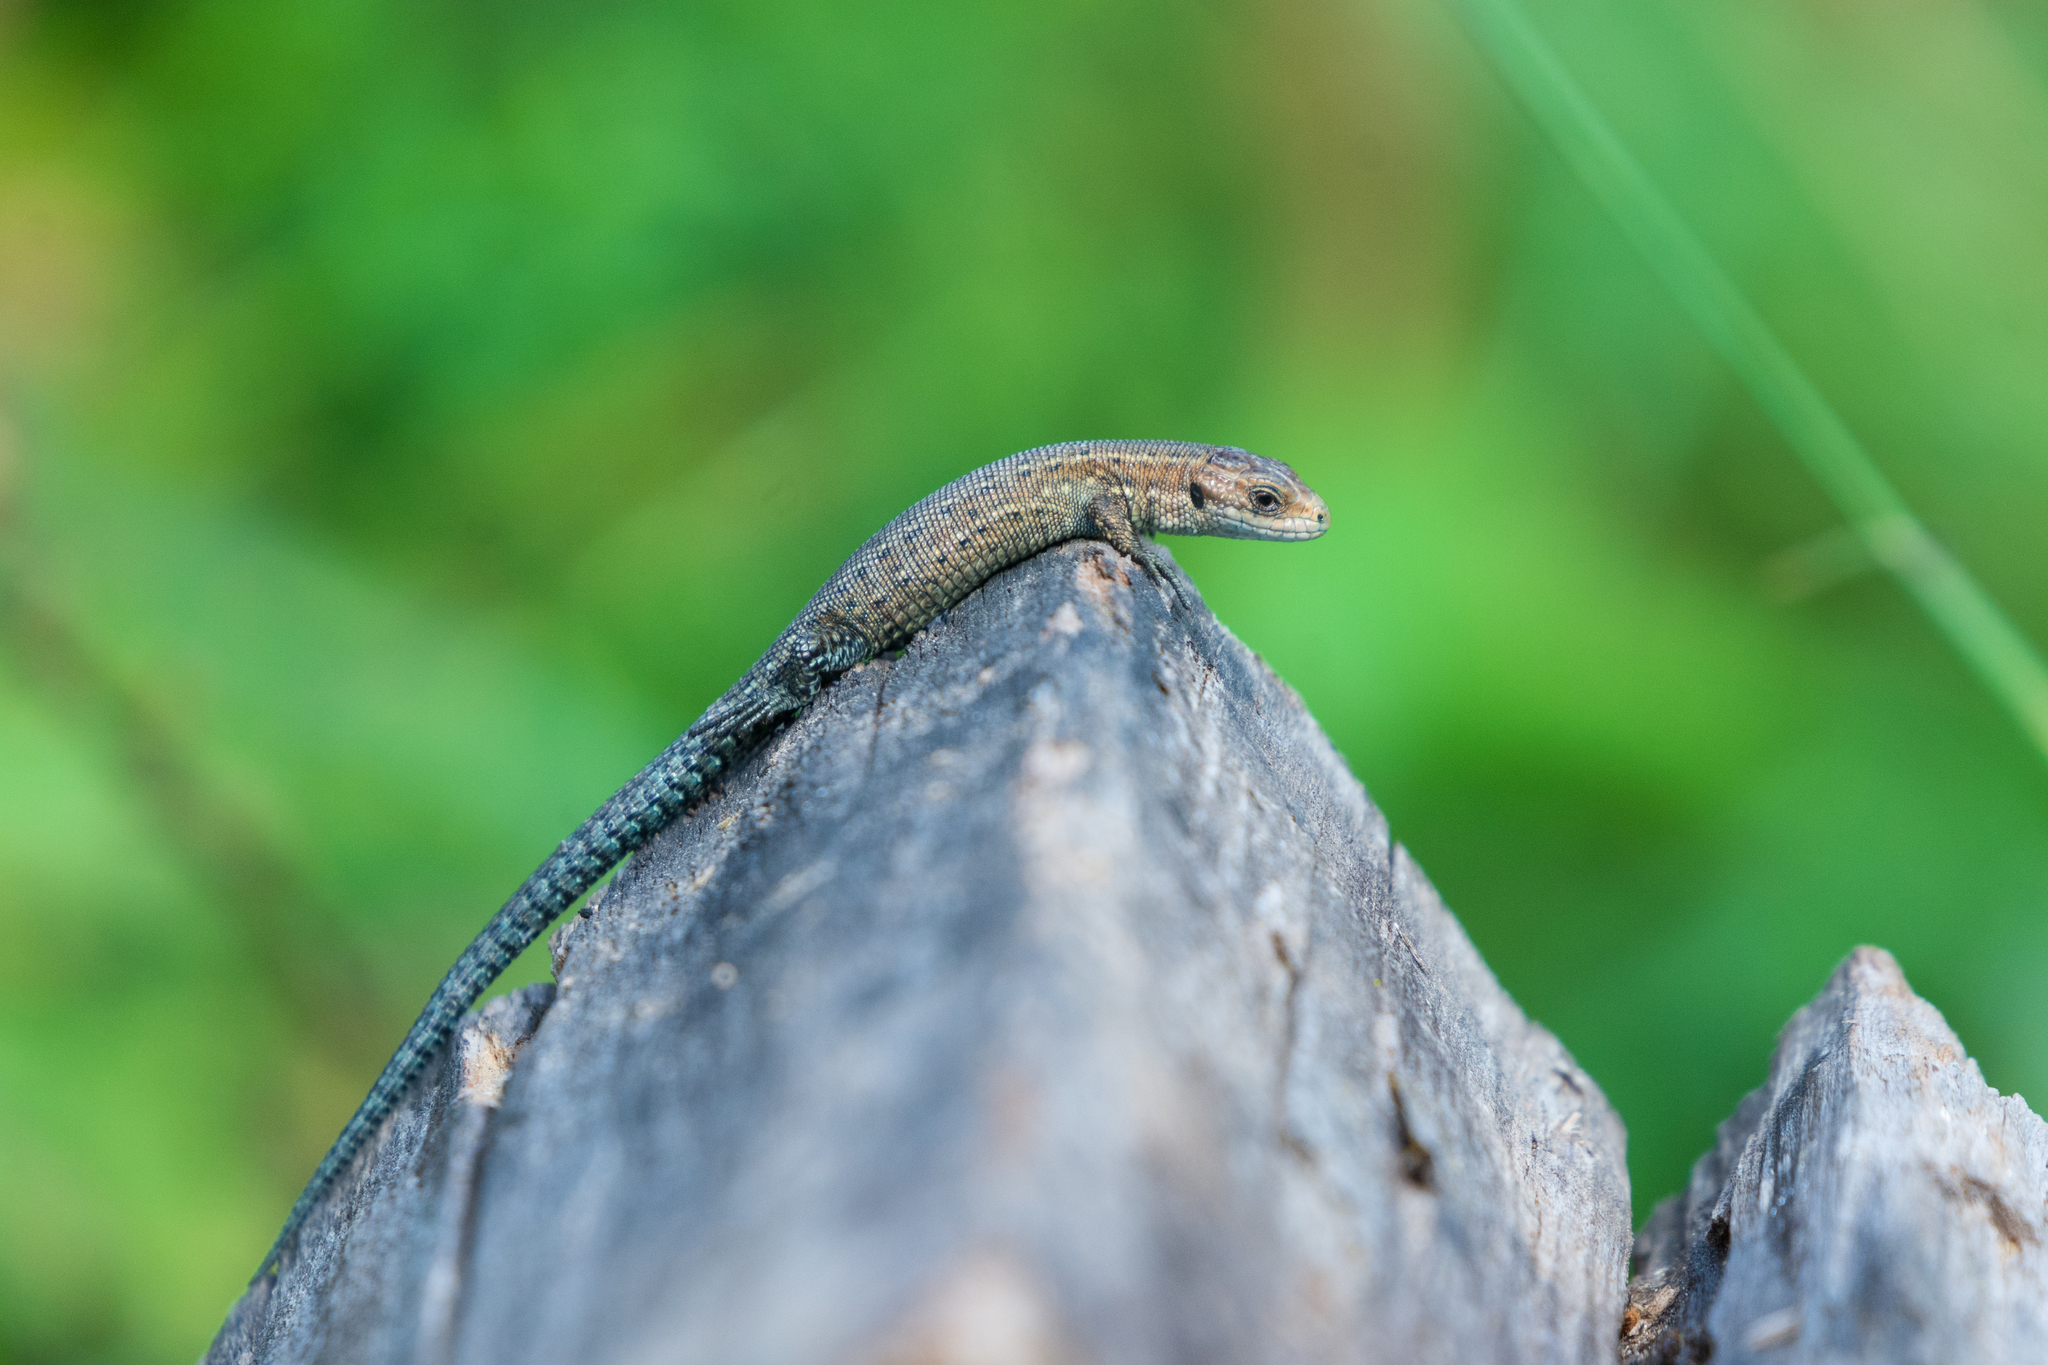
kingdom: Animalia
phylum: Chordata
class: Squamata
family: Lacertidae
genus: Zootoca
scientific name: Zootoca vivipara
